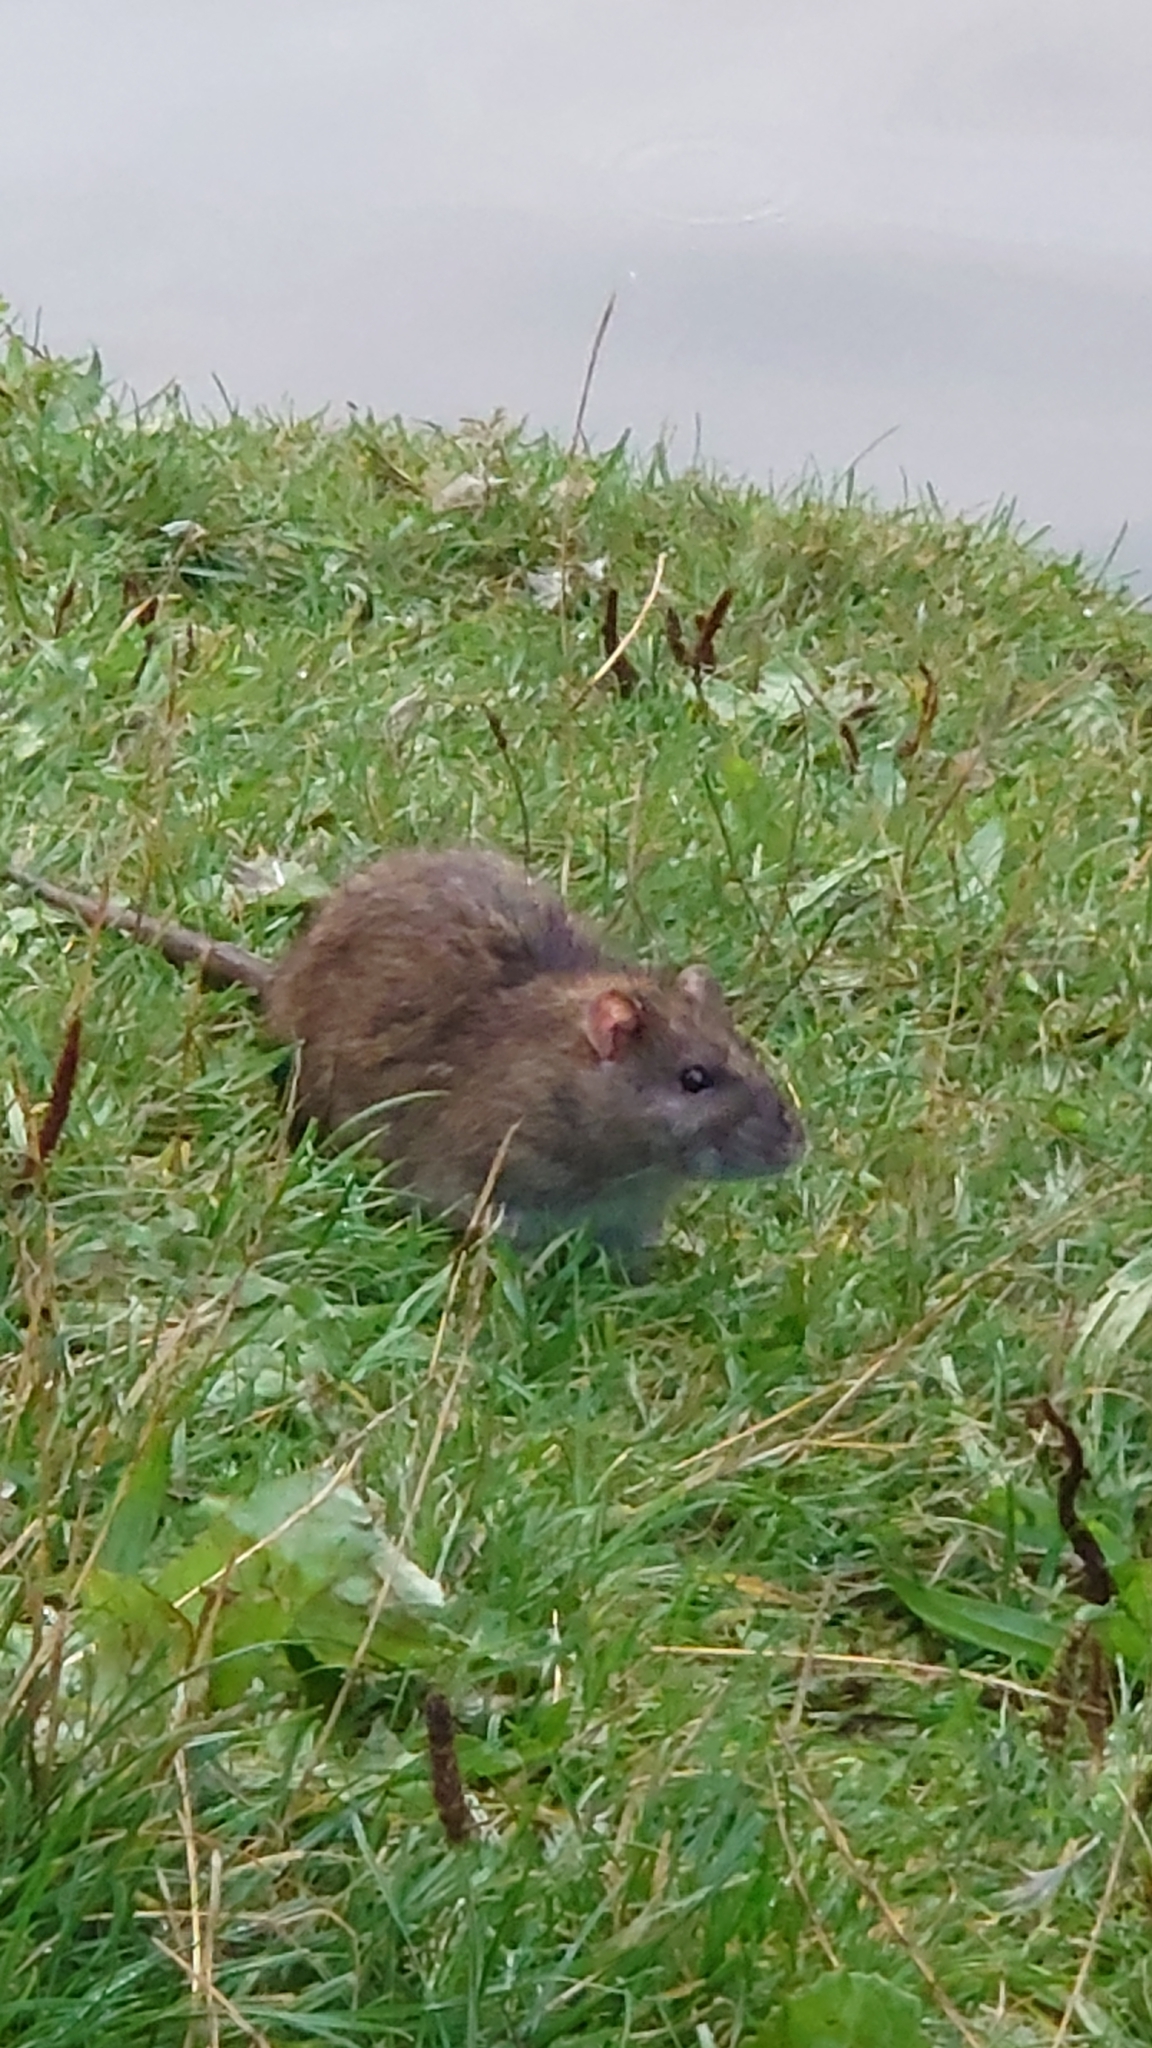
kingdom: Animalia
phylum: Chordata
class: Mammalia
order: Rodentia
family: Muridae
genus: Rattus
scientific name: Rattus norvegicus
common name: Brown rat
